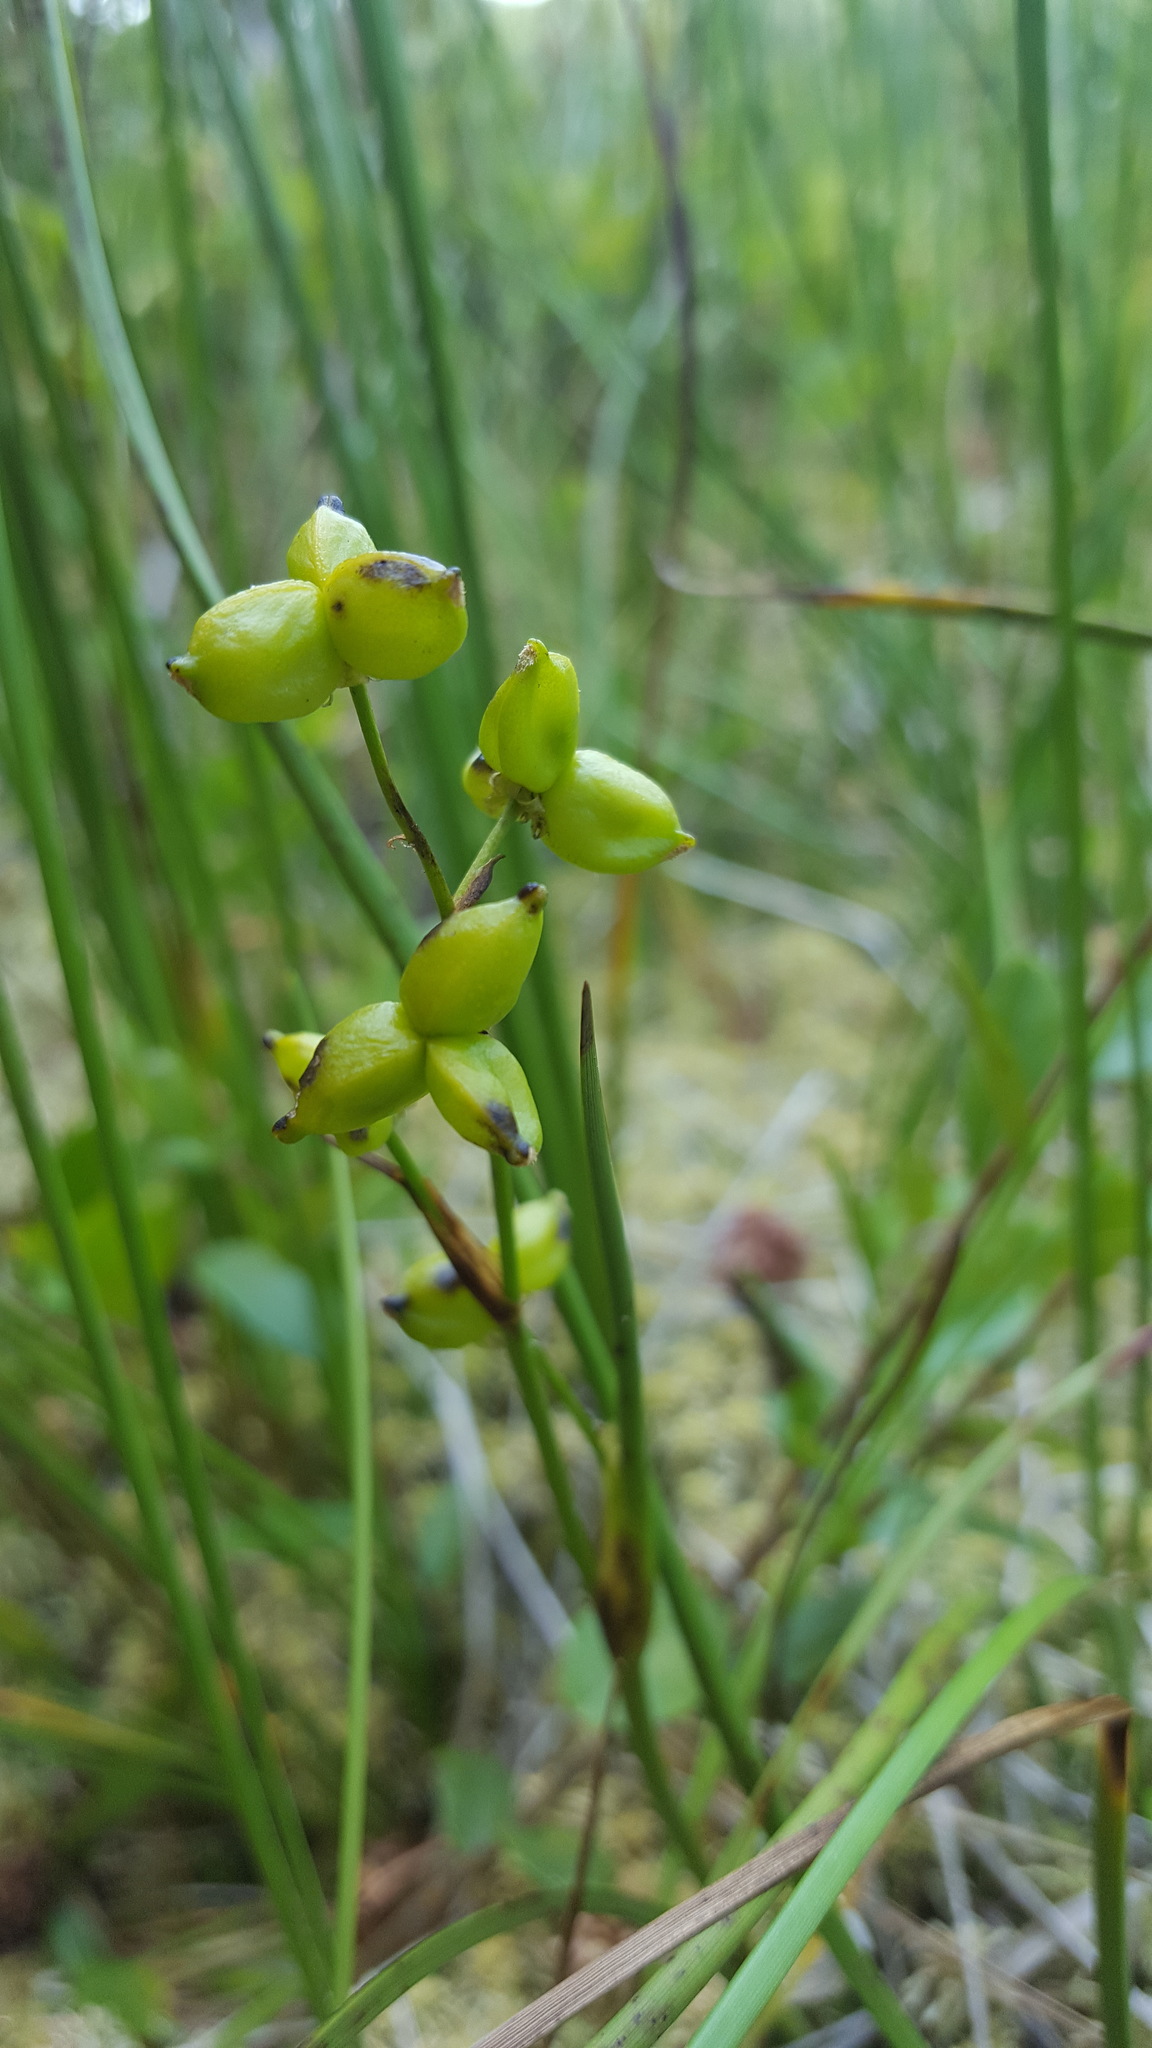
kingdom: Plantae
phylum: Tracheophyta
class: Liliopsida
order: Alismatales
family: Scheuchzeriaceae
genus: Scheuchzeria
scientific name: Scheuchzeria palustris
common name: Rannoch-rush
